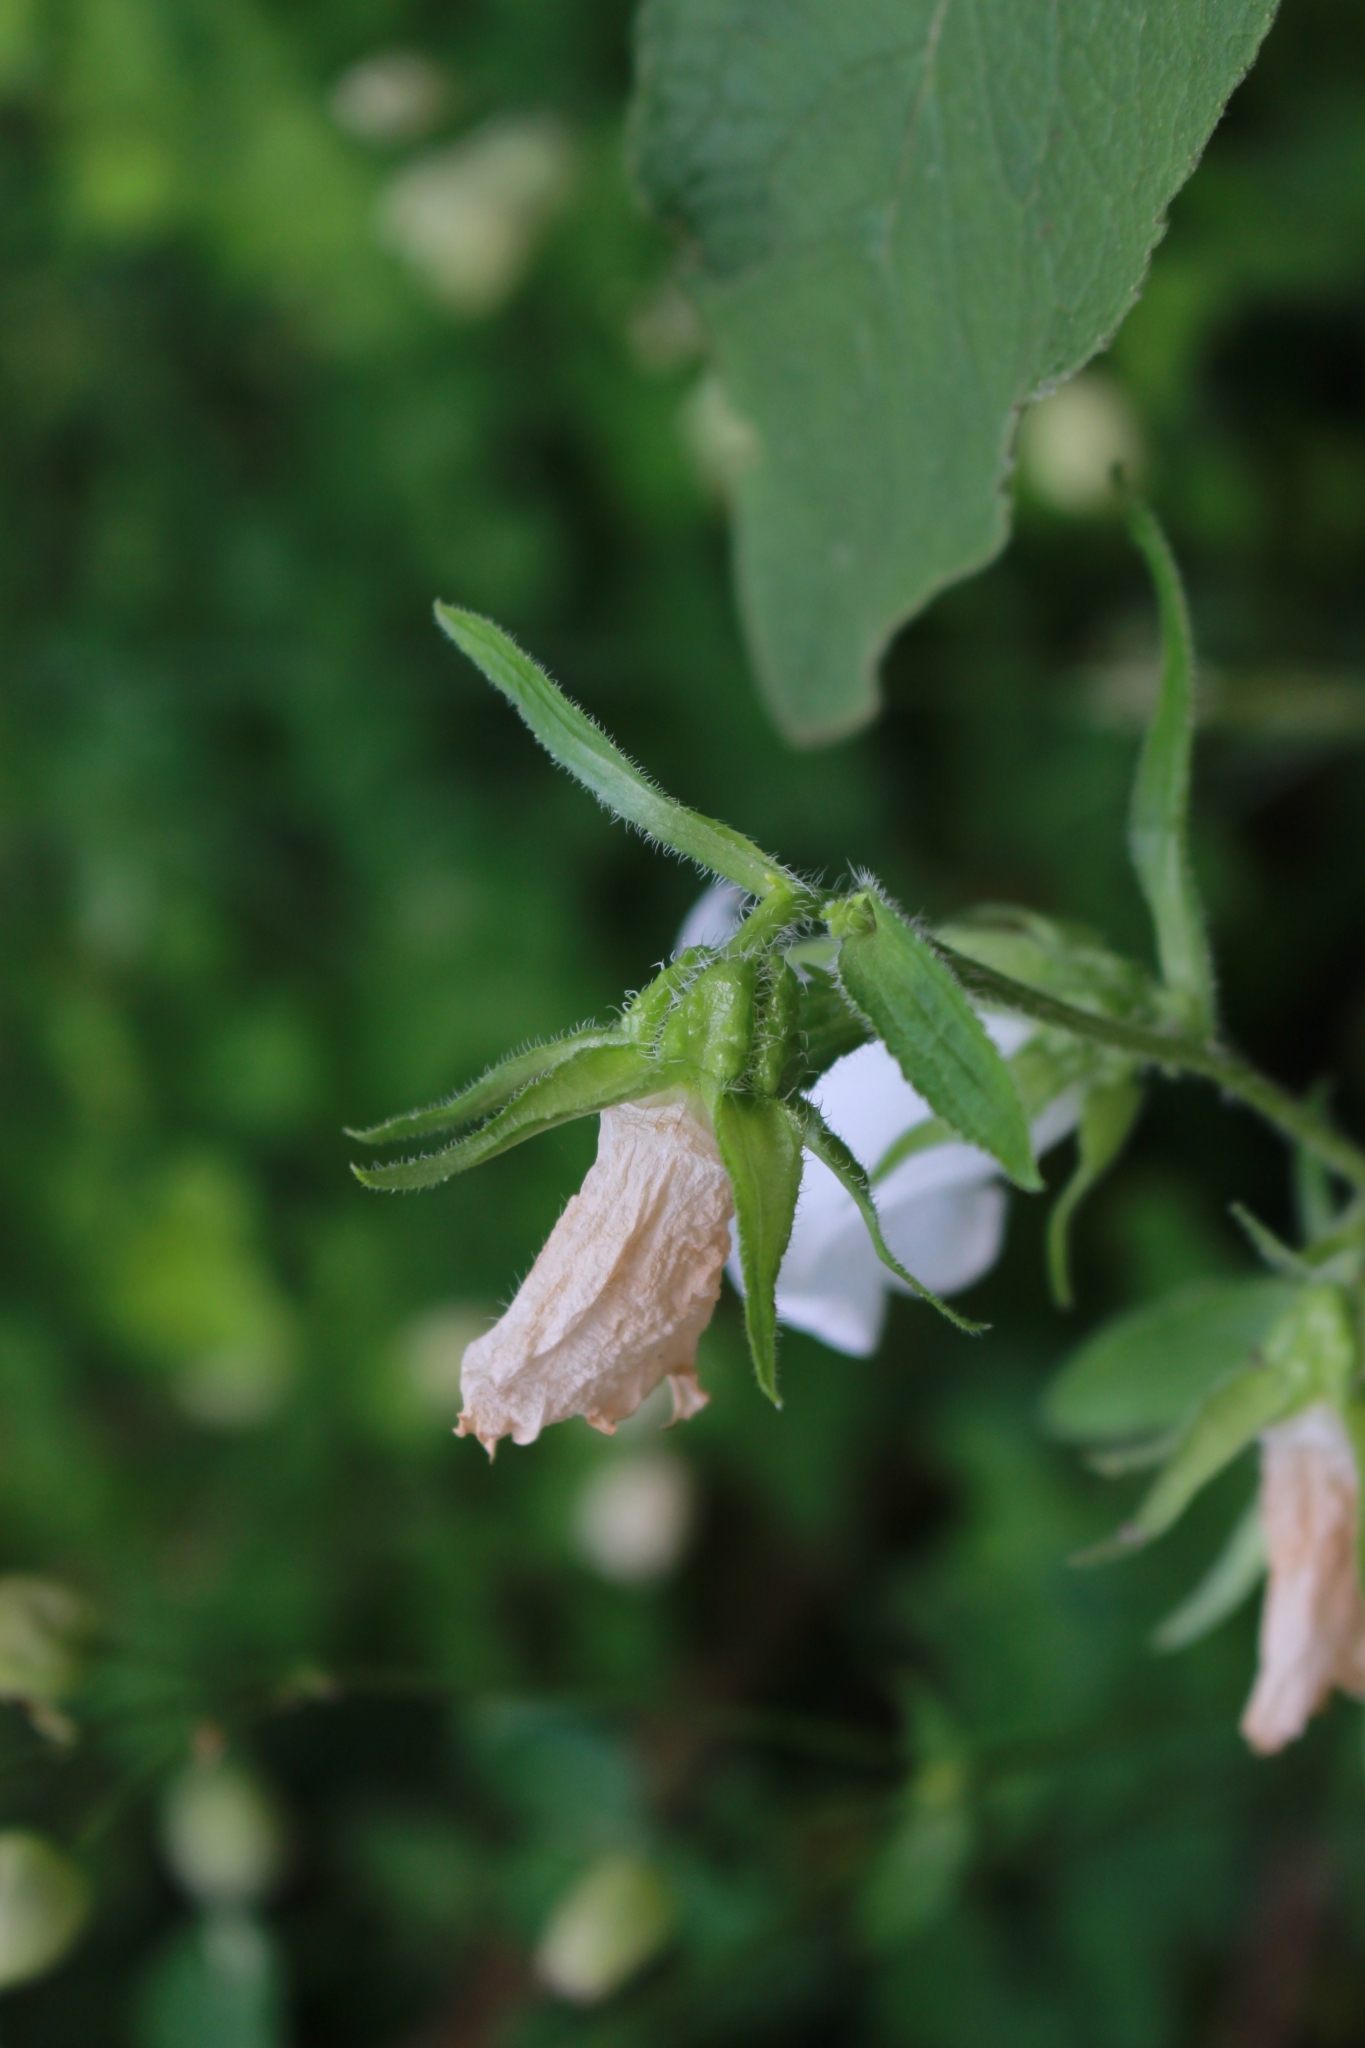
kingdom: Plantae
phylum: Tracheophyta
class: Magnoliopsida
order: Asterales
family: Campanulaceae
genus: Campanula
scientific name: Campanula medium
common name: Canterbury bells
